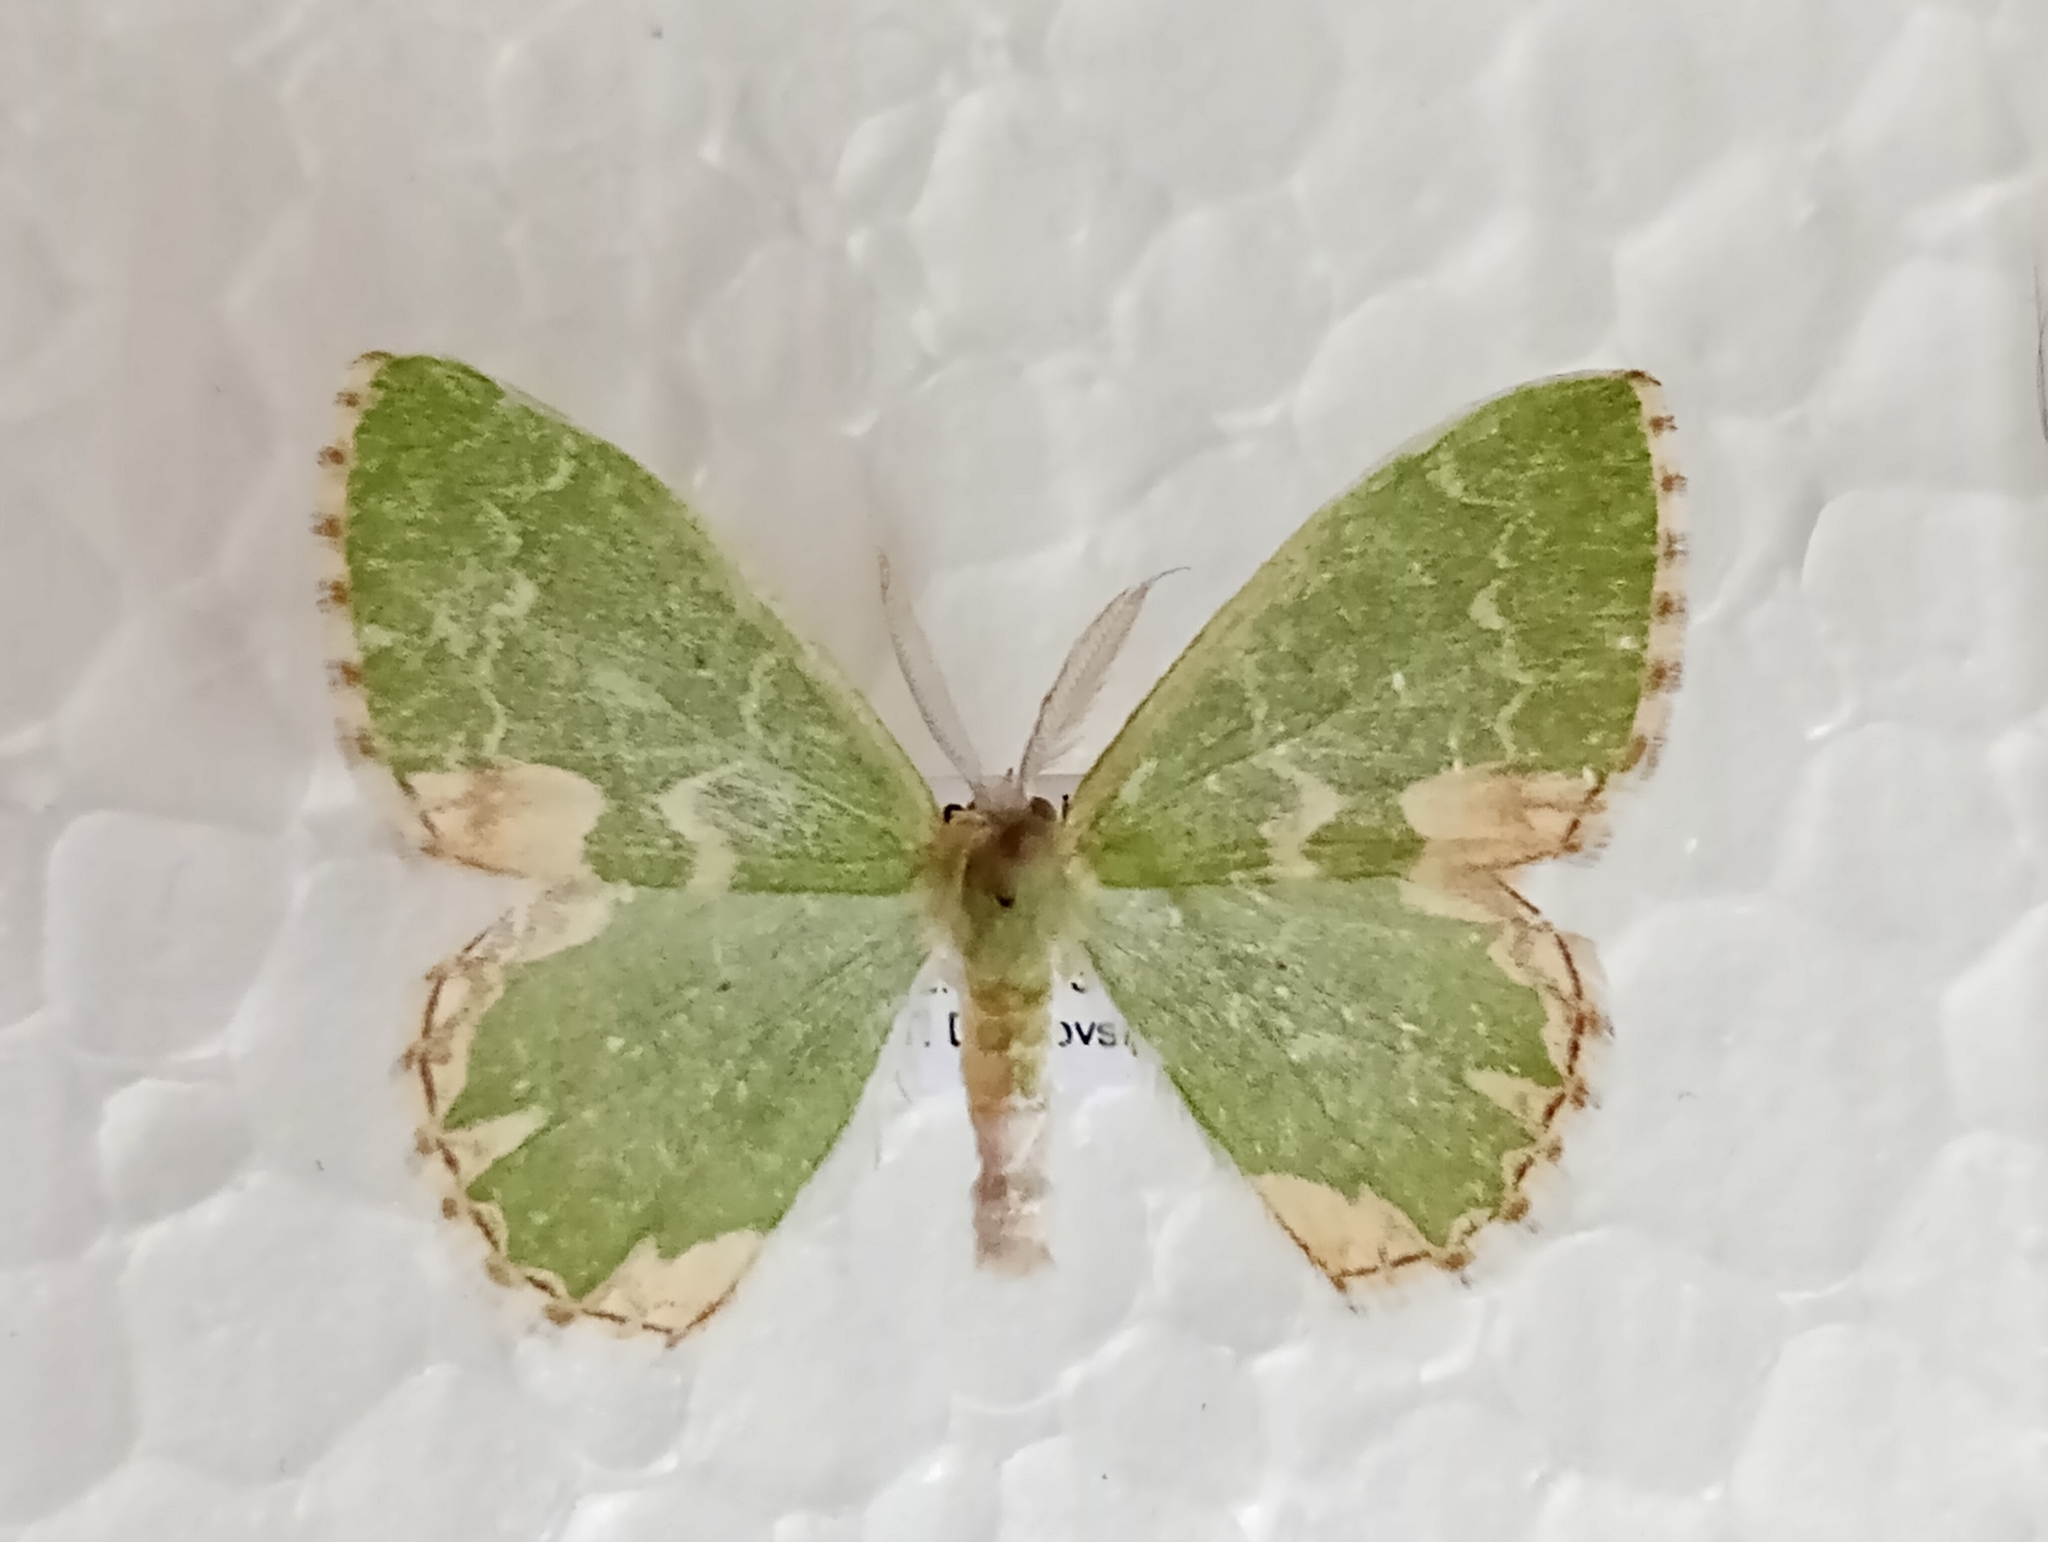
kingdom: Animalia
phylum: Arthropoda
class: Insecta
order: Lepidoptera
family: Geometridae
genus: Comibaena
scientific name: Comibaena bajularia
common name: Blotched emerald
